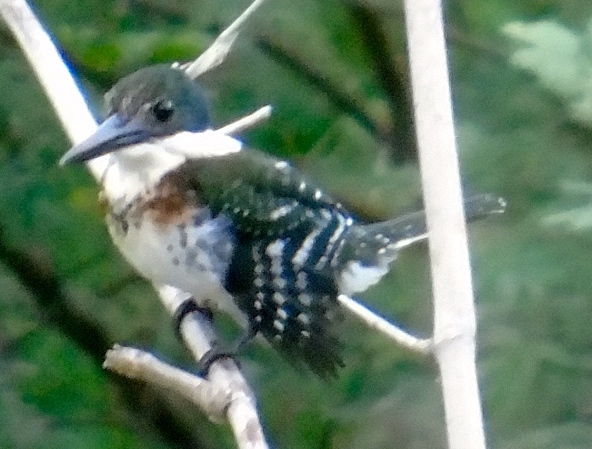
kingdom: Animalia
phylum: Chordata
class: Aves
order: Coraciiformes
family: Alcedinidae
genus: Chloroceryle
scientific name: Chloroceryle americana
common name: Green kingfisher
